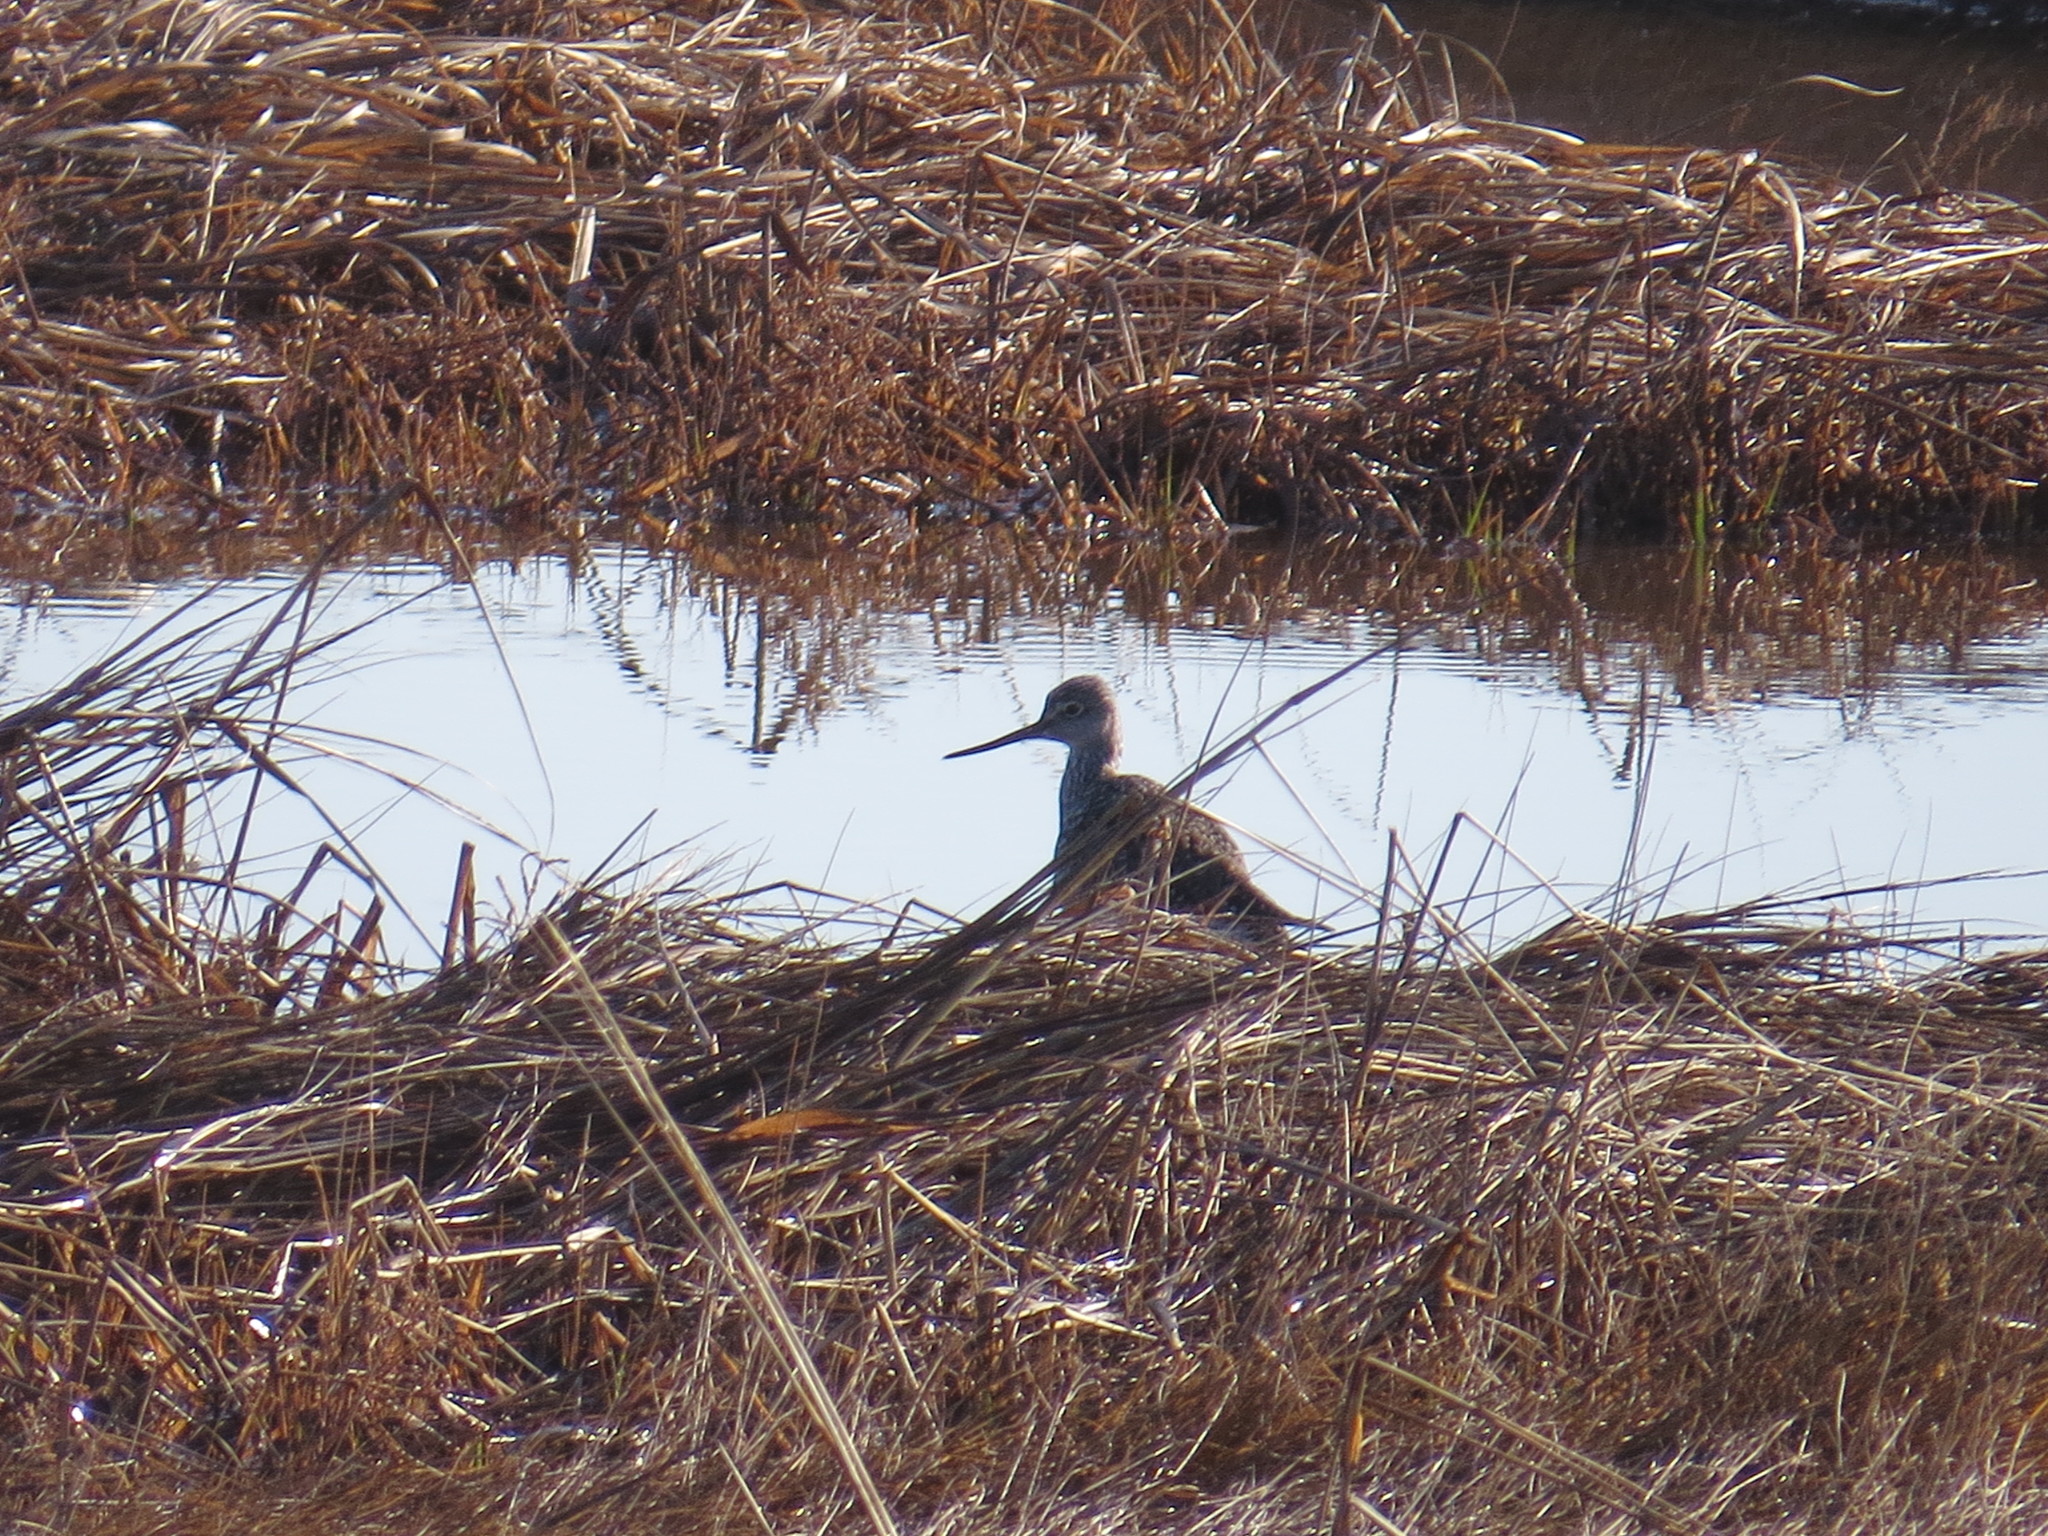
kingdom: Animalia
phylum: Chordata
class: Aves
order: Charadriiformes
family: Scolopacidae
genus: Tringa
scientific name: Tringa melanoleuca
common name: Greater yellowlegs
